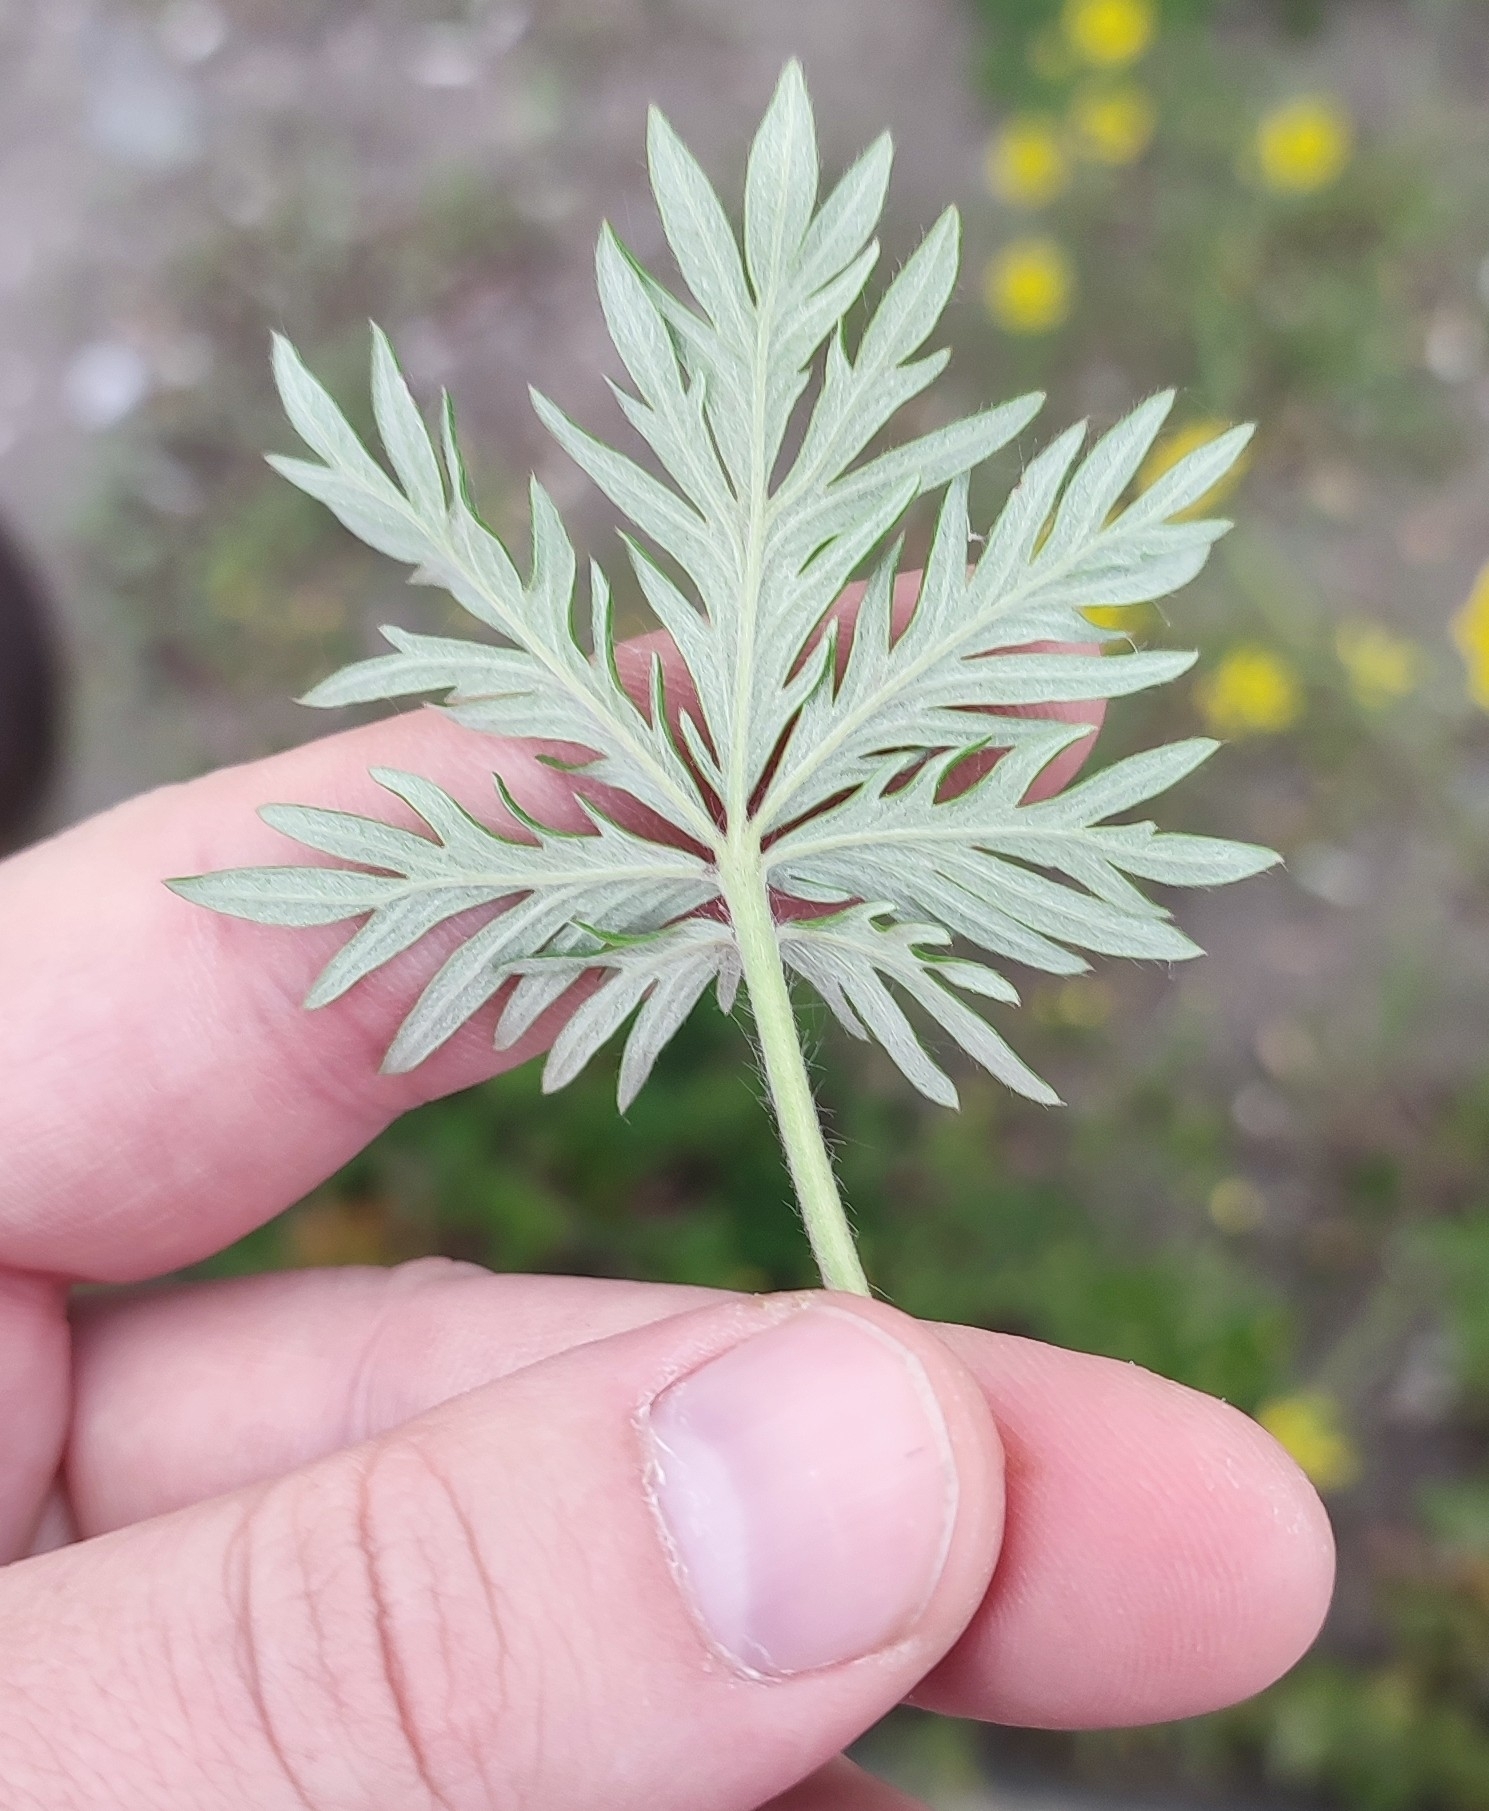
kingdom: Plantae
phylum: Tracheophyta
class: Magnoliopsida
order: Rosales
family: Rosaceae
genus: Potentilla
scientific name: Potentilla angarensis
